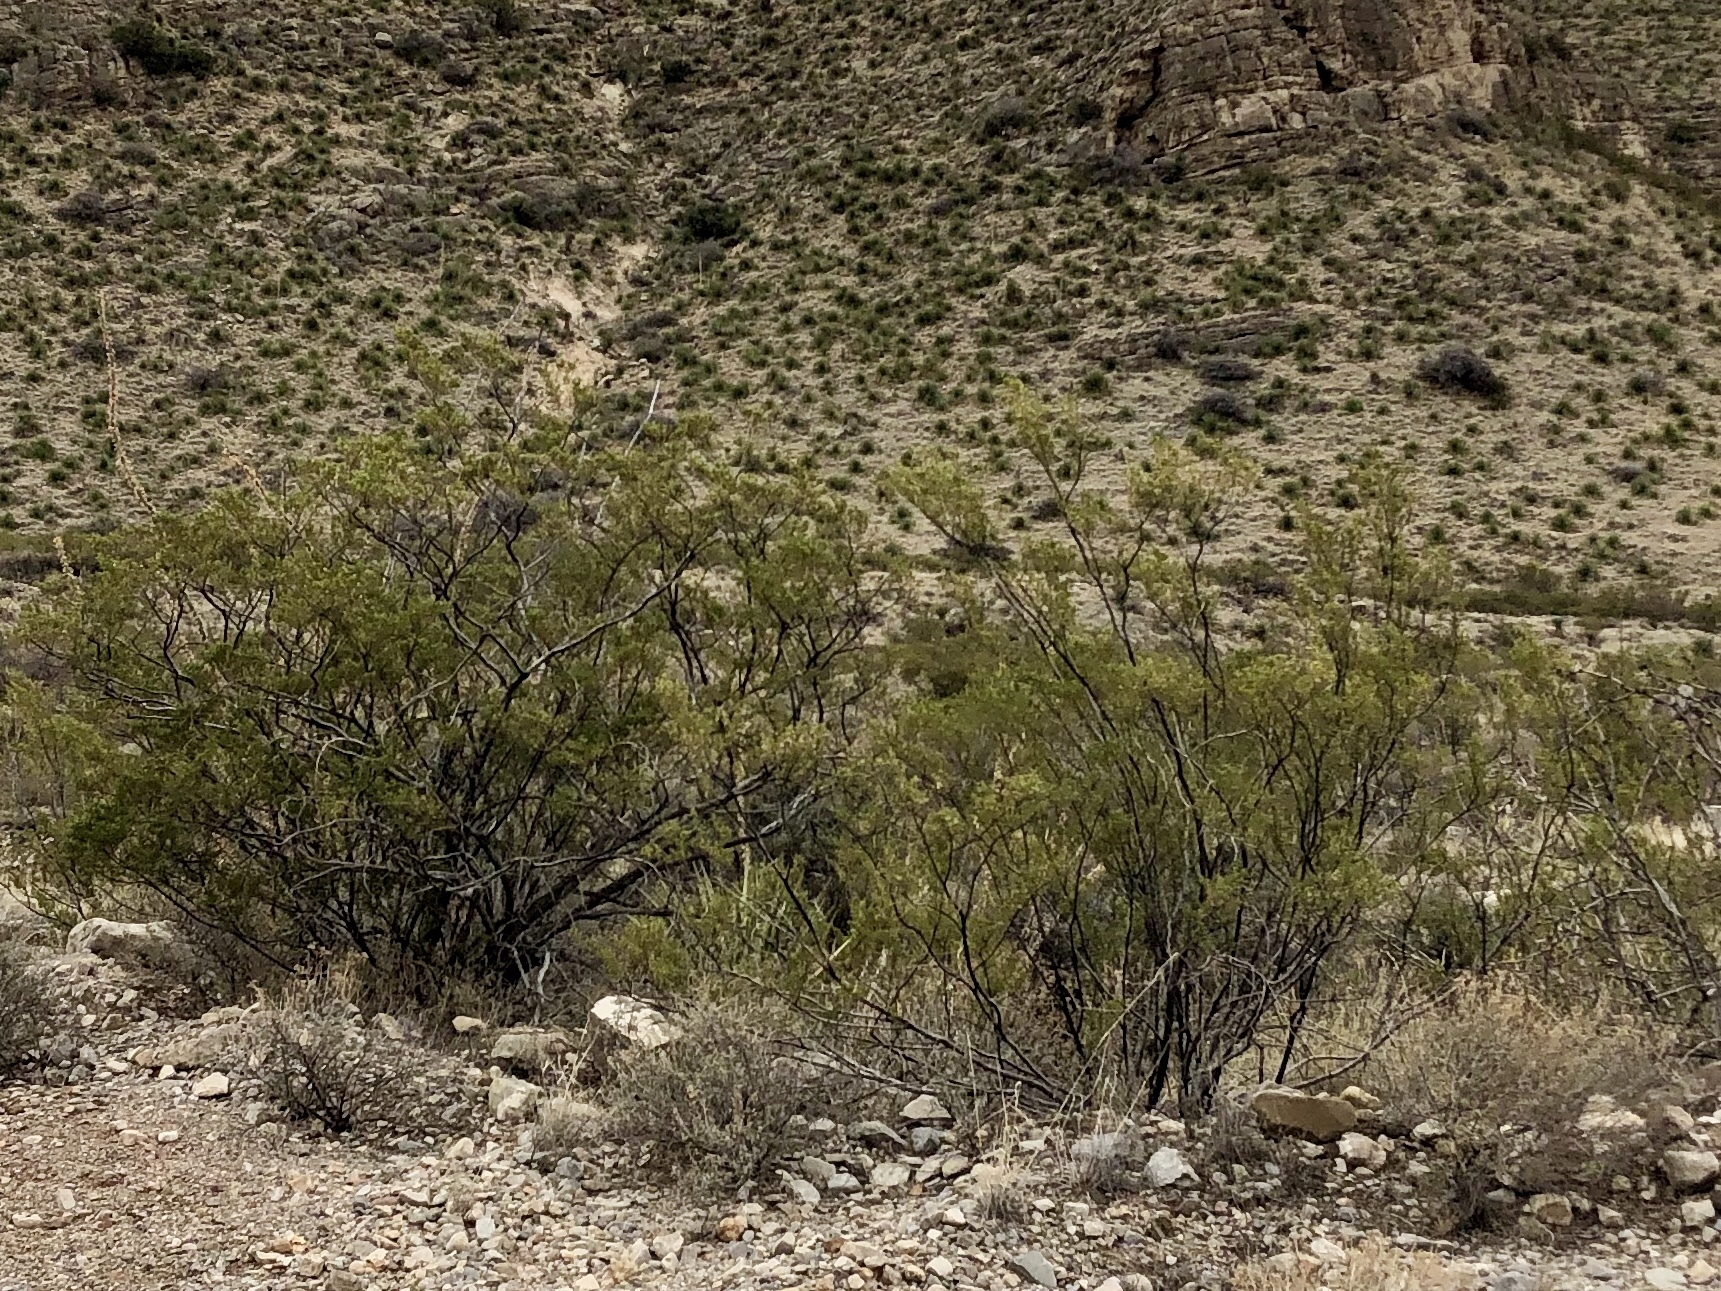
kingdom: Plantae
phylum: Tracheophyta
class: Magnoliopsida
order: Zygophyllales
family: Zygophyllaceae
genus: Larrea
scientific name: Larrea tridentata
